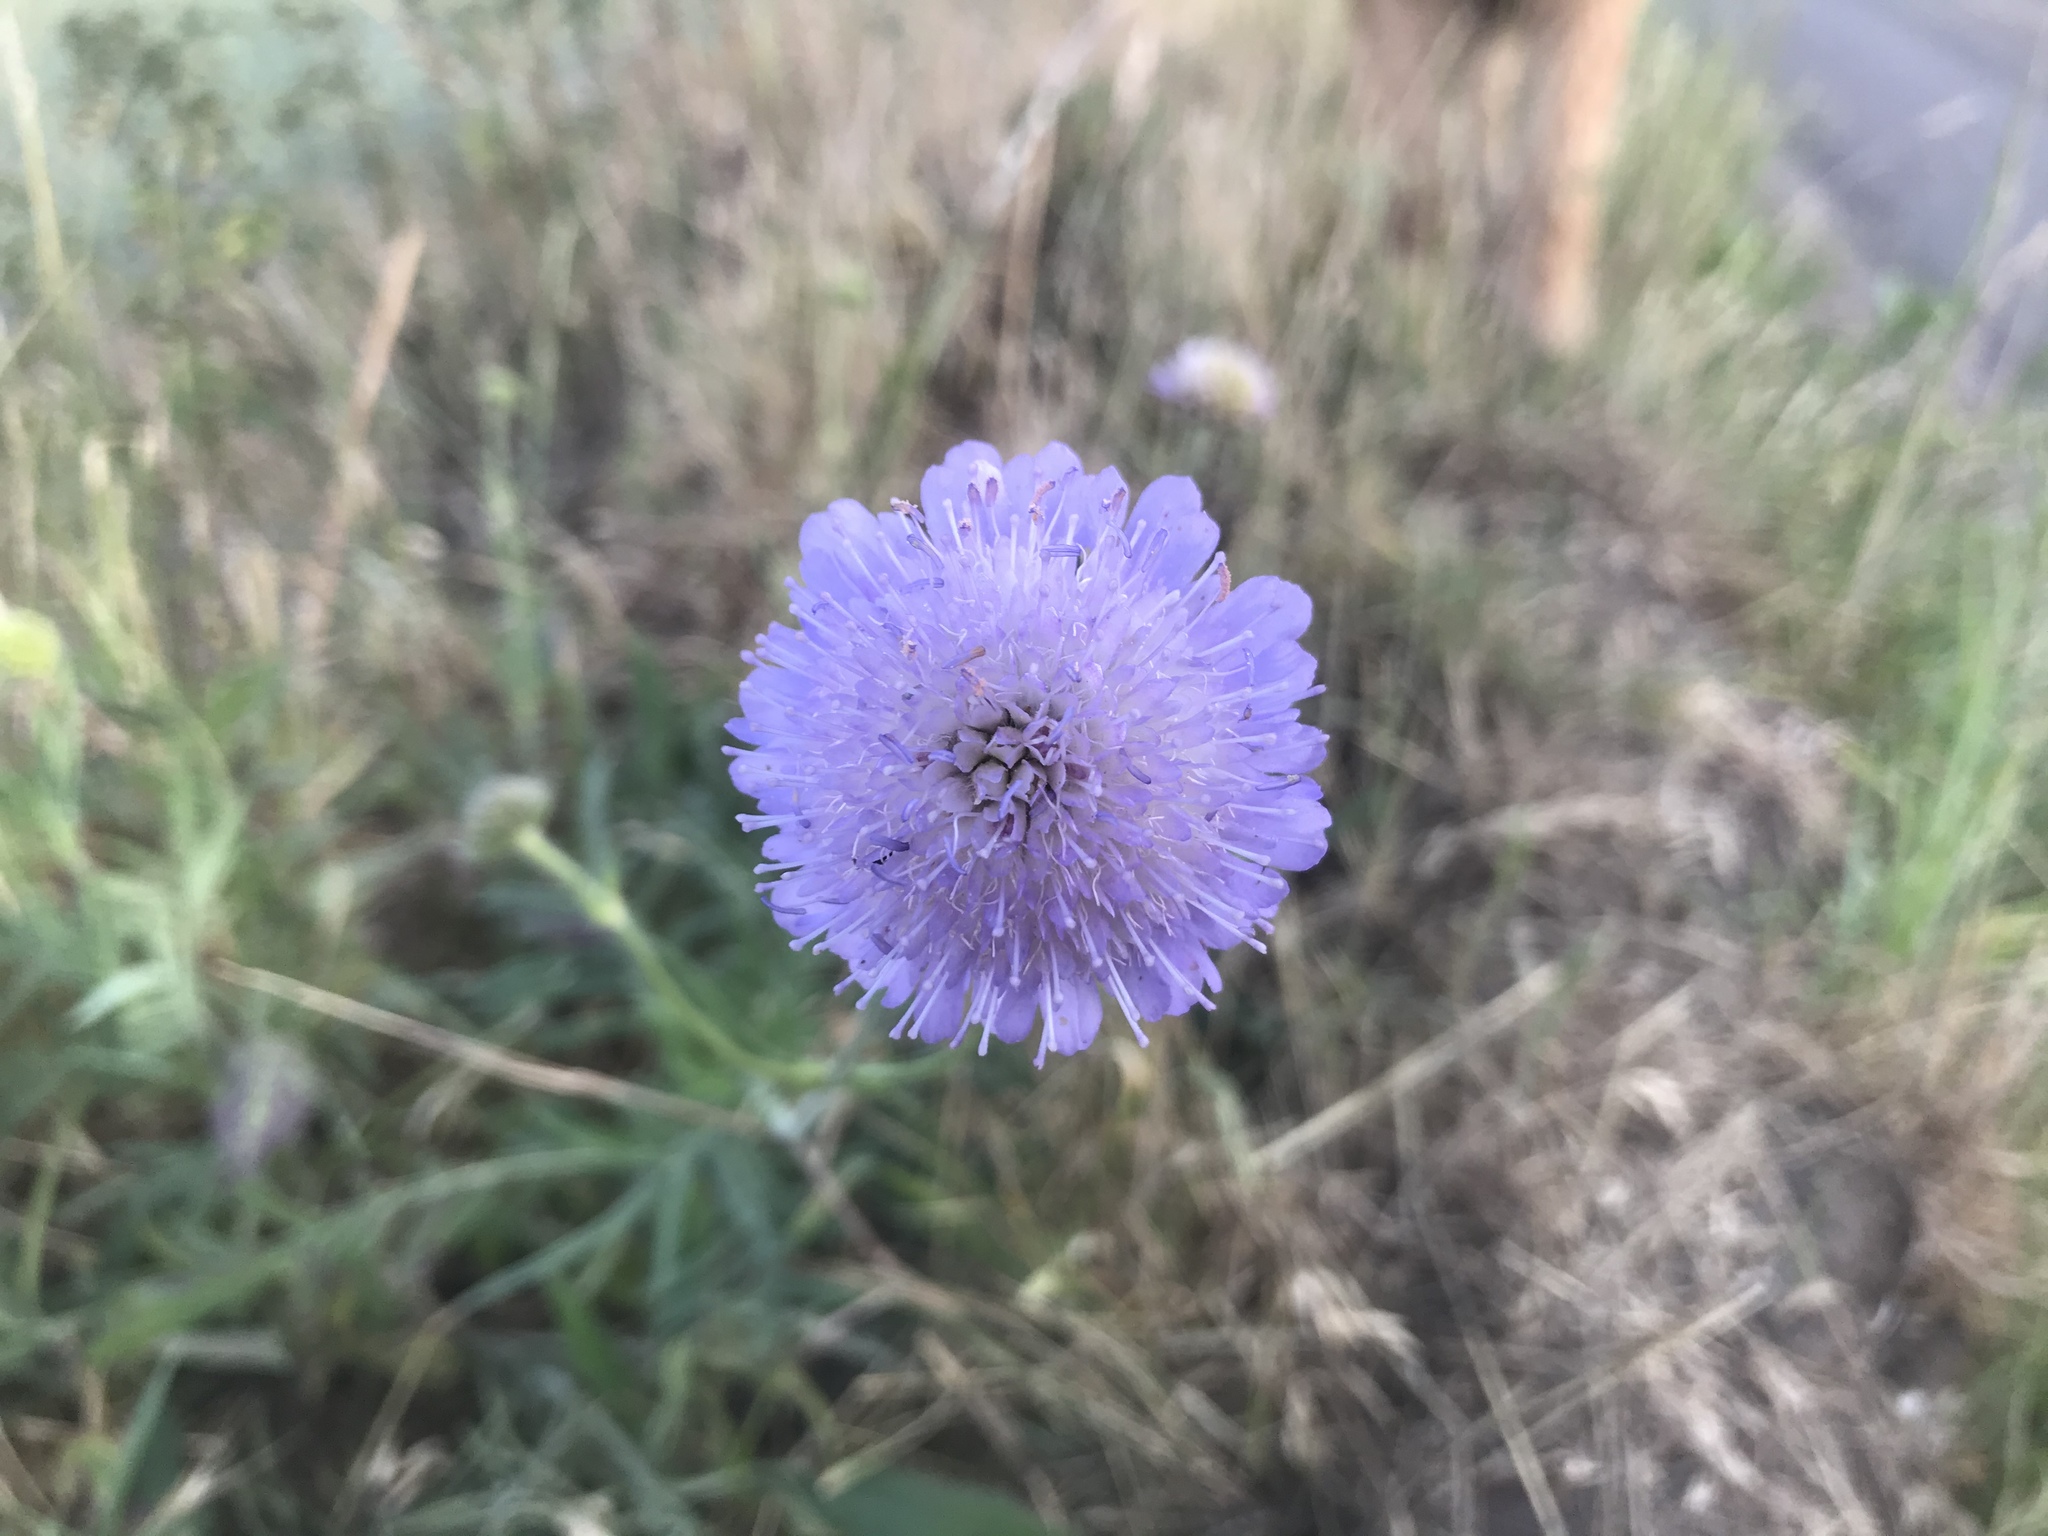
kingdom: Plantae
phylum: Tracheophyta
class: Magnoliopsida
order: Dipsacales
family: Caprifoliaceae
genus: Knautia
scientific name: Knautia arvensis
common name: Field scabiosa
